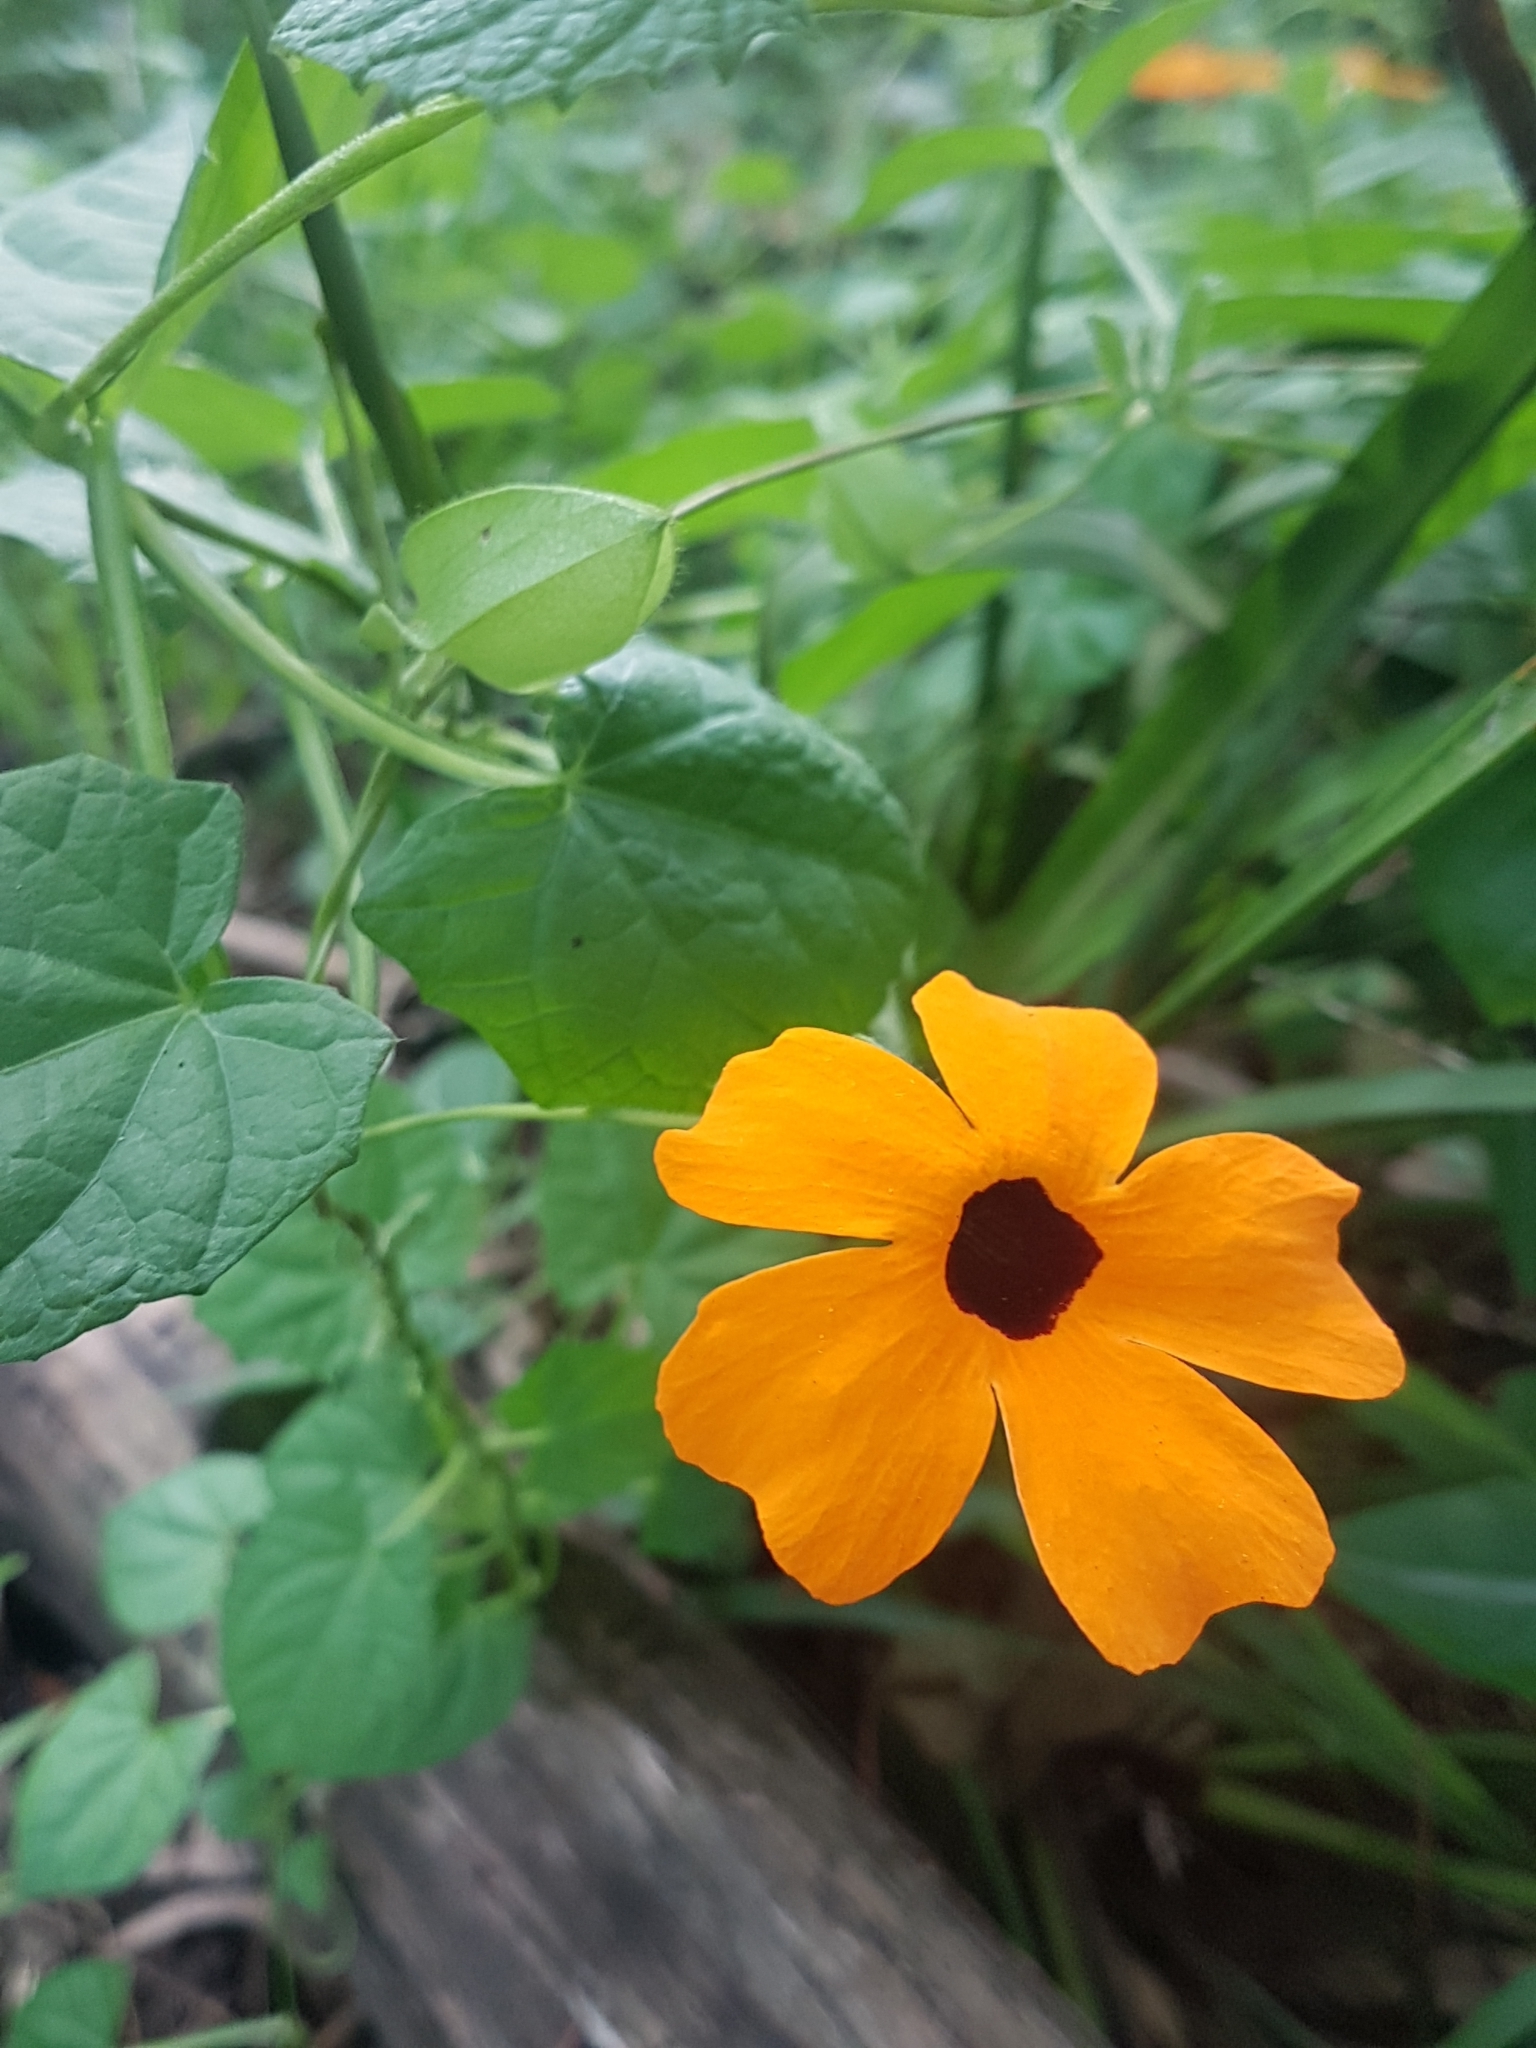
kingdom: Plantae
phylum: Tracheophyta
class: Magnoliopsida
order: Lamiales
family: Acanthaceae
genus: Thunbergia
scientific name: Thunbergia alata
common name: Blackeyed susan vine
